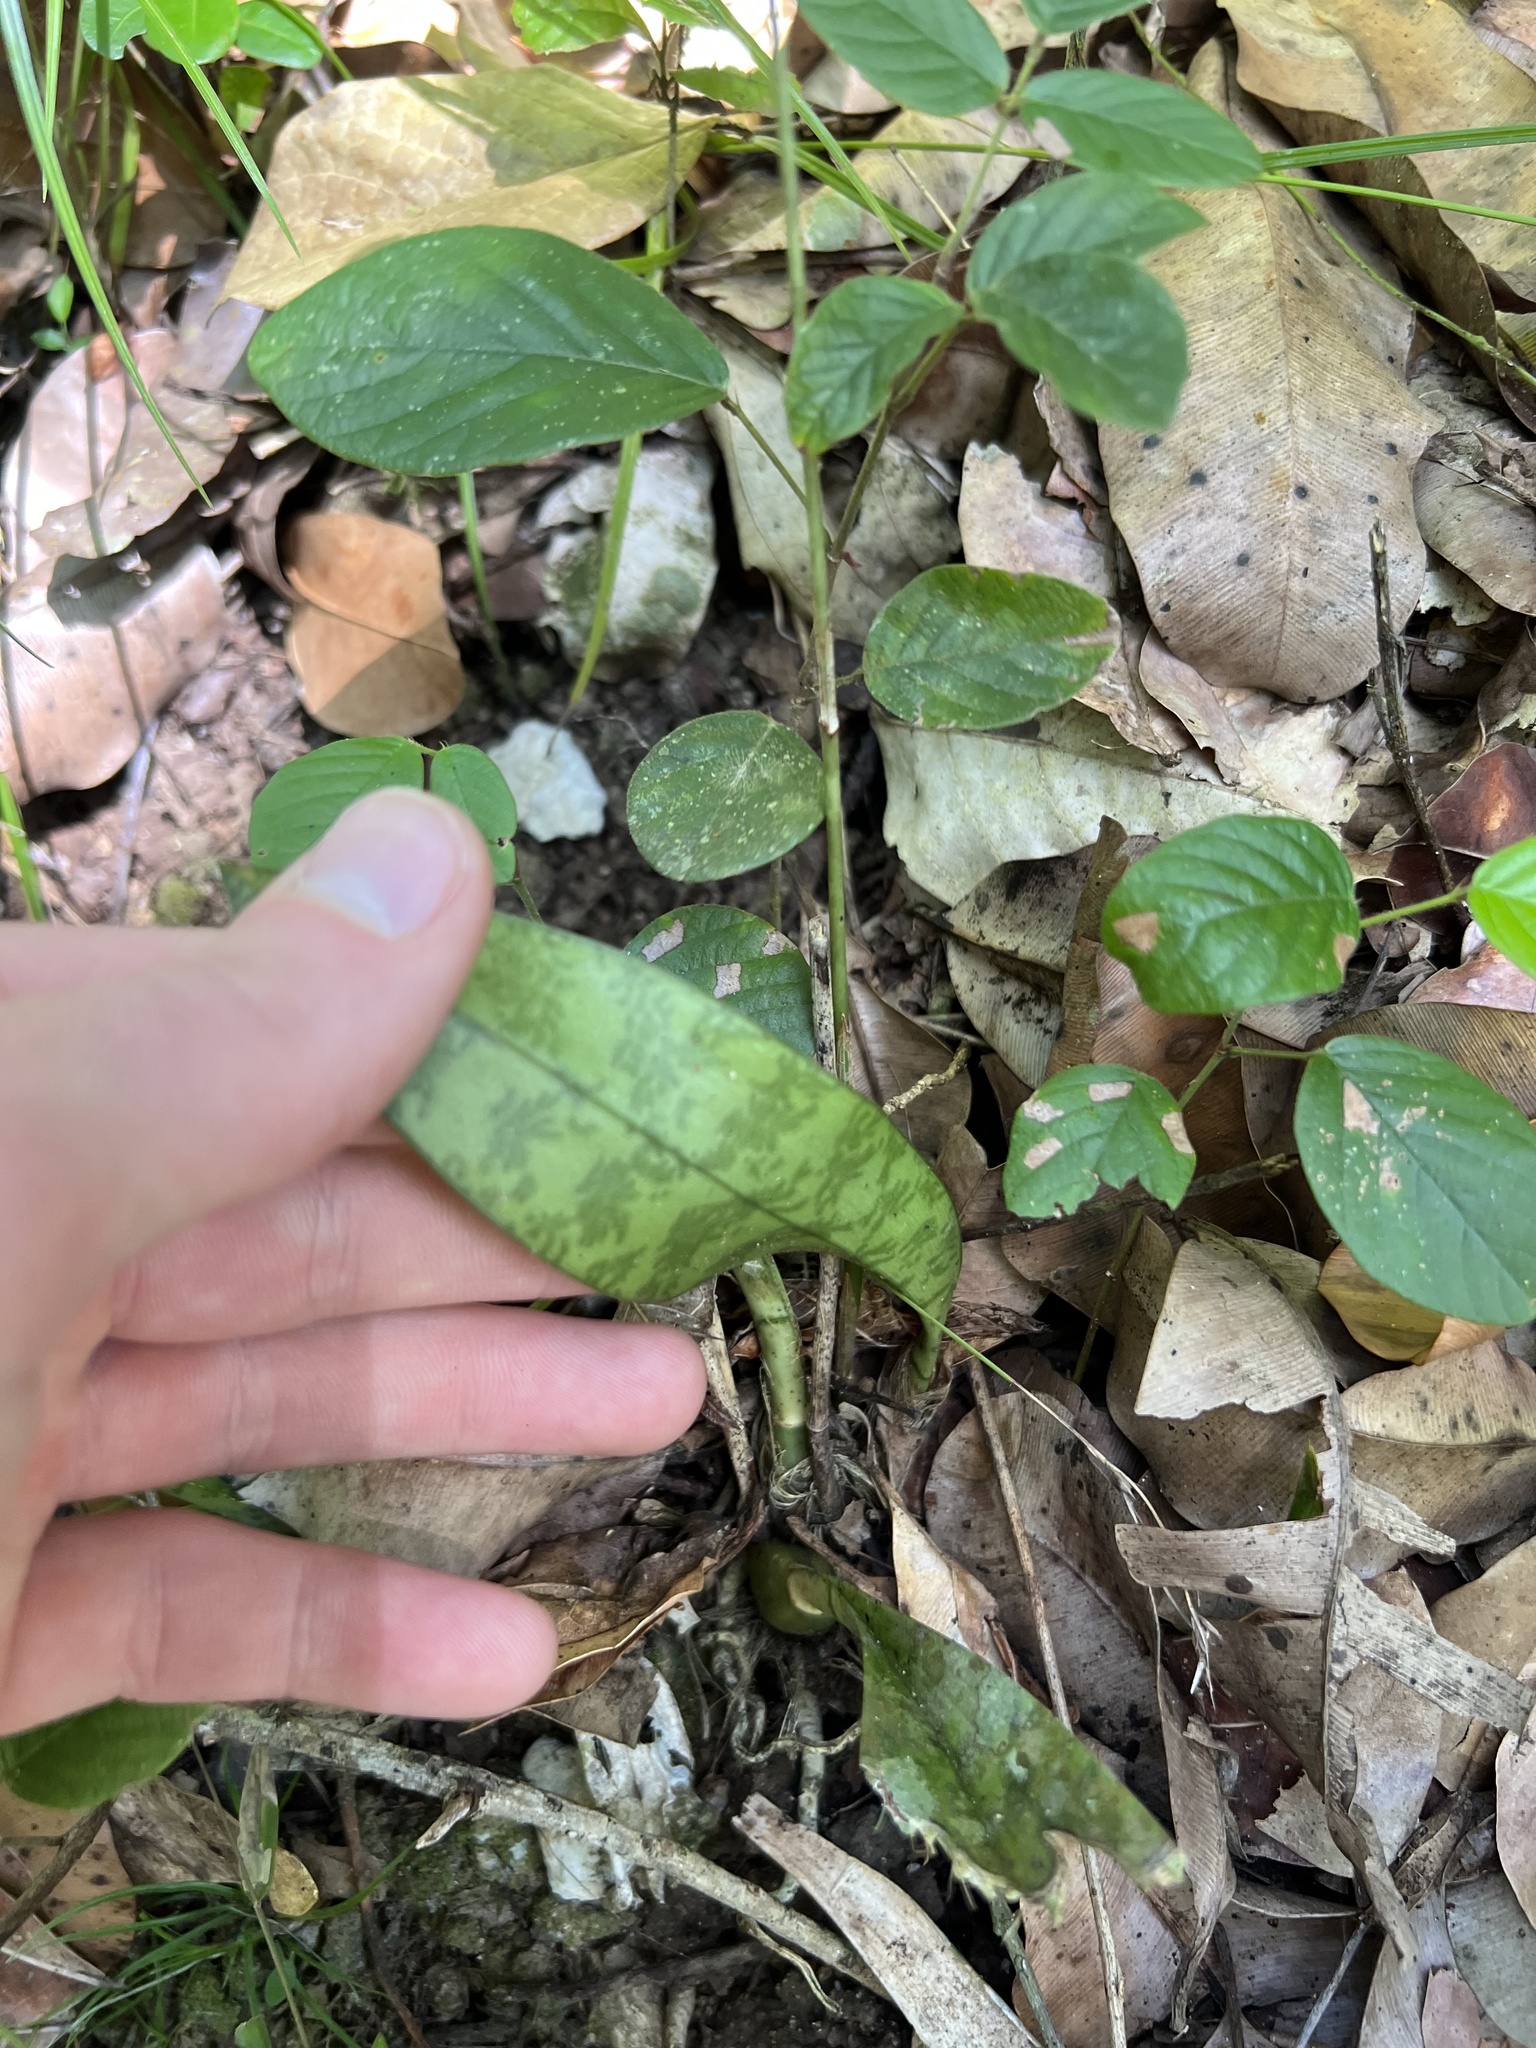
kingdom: Plantae
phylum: Tracheophyta
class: Liliopsida
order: Asparagales
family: Orchidaceae
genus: Eulophia
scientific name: Eulophia maculata
